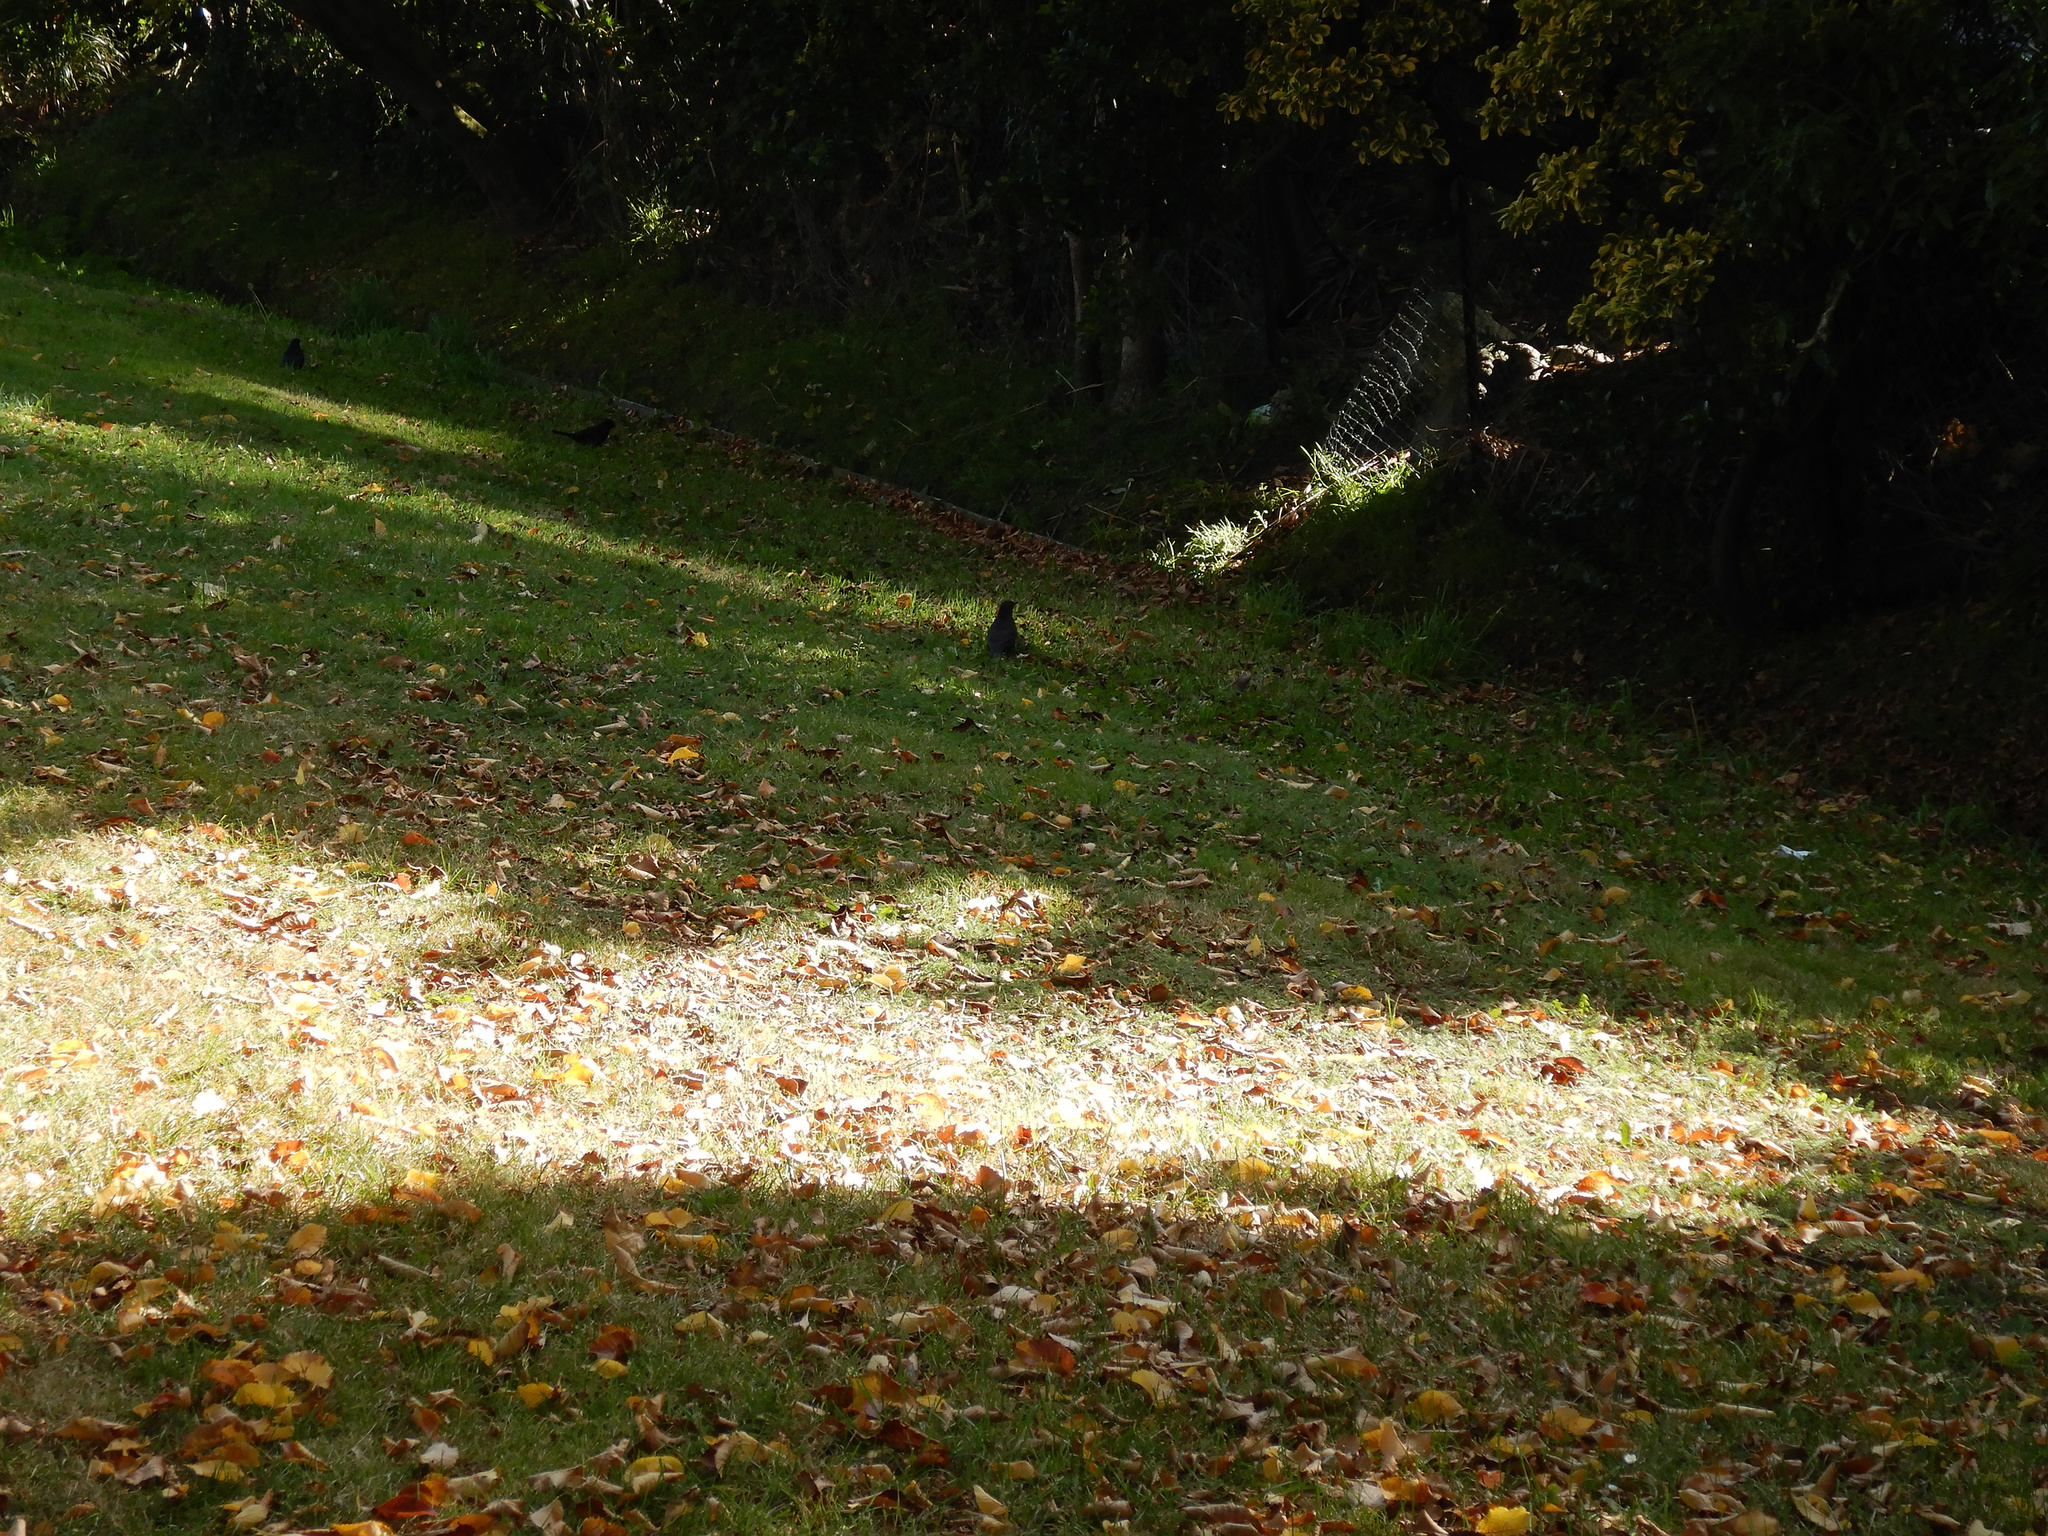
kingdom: Animalia
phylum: Chordata
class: Aves
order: Passeriformes
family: Turdidae
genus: Turdus
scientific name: Turdus merula
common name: Common blackbird
